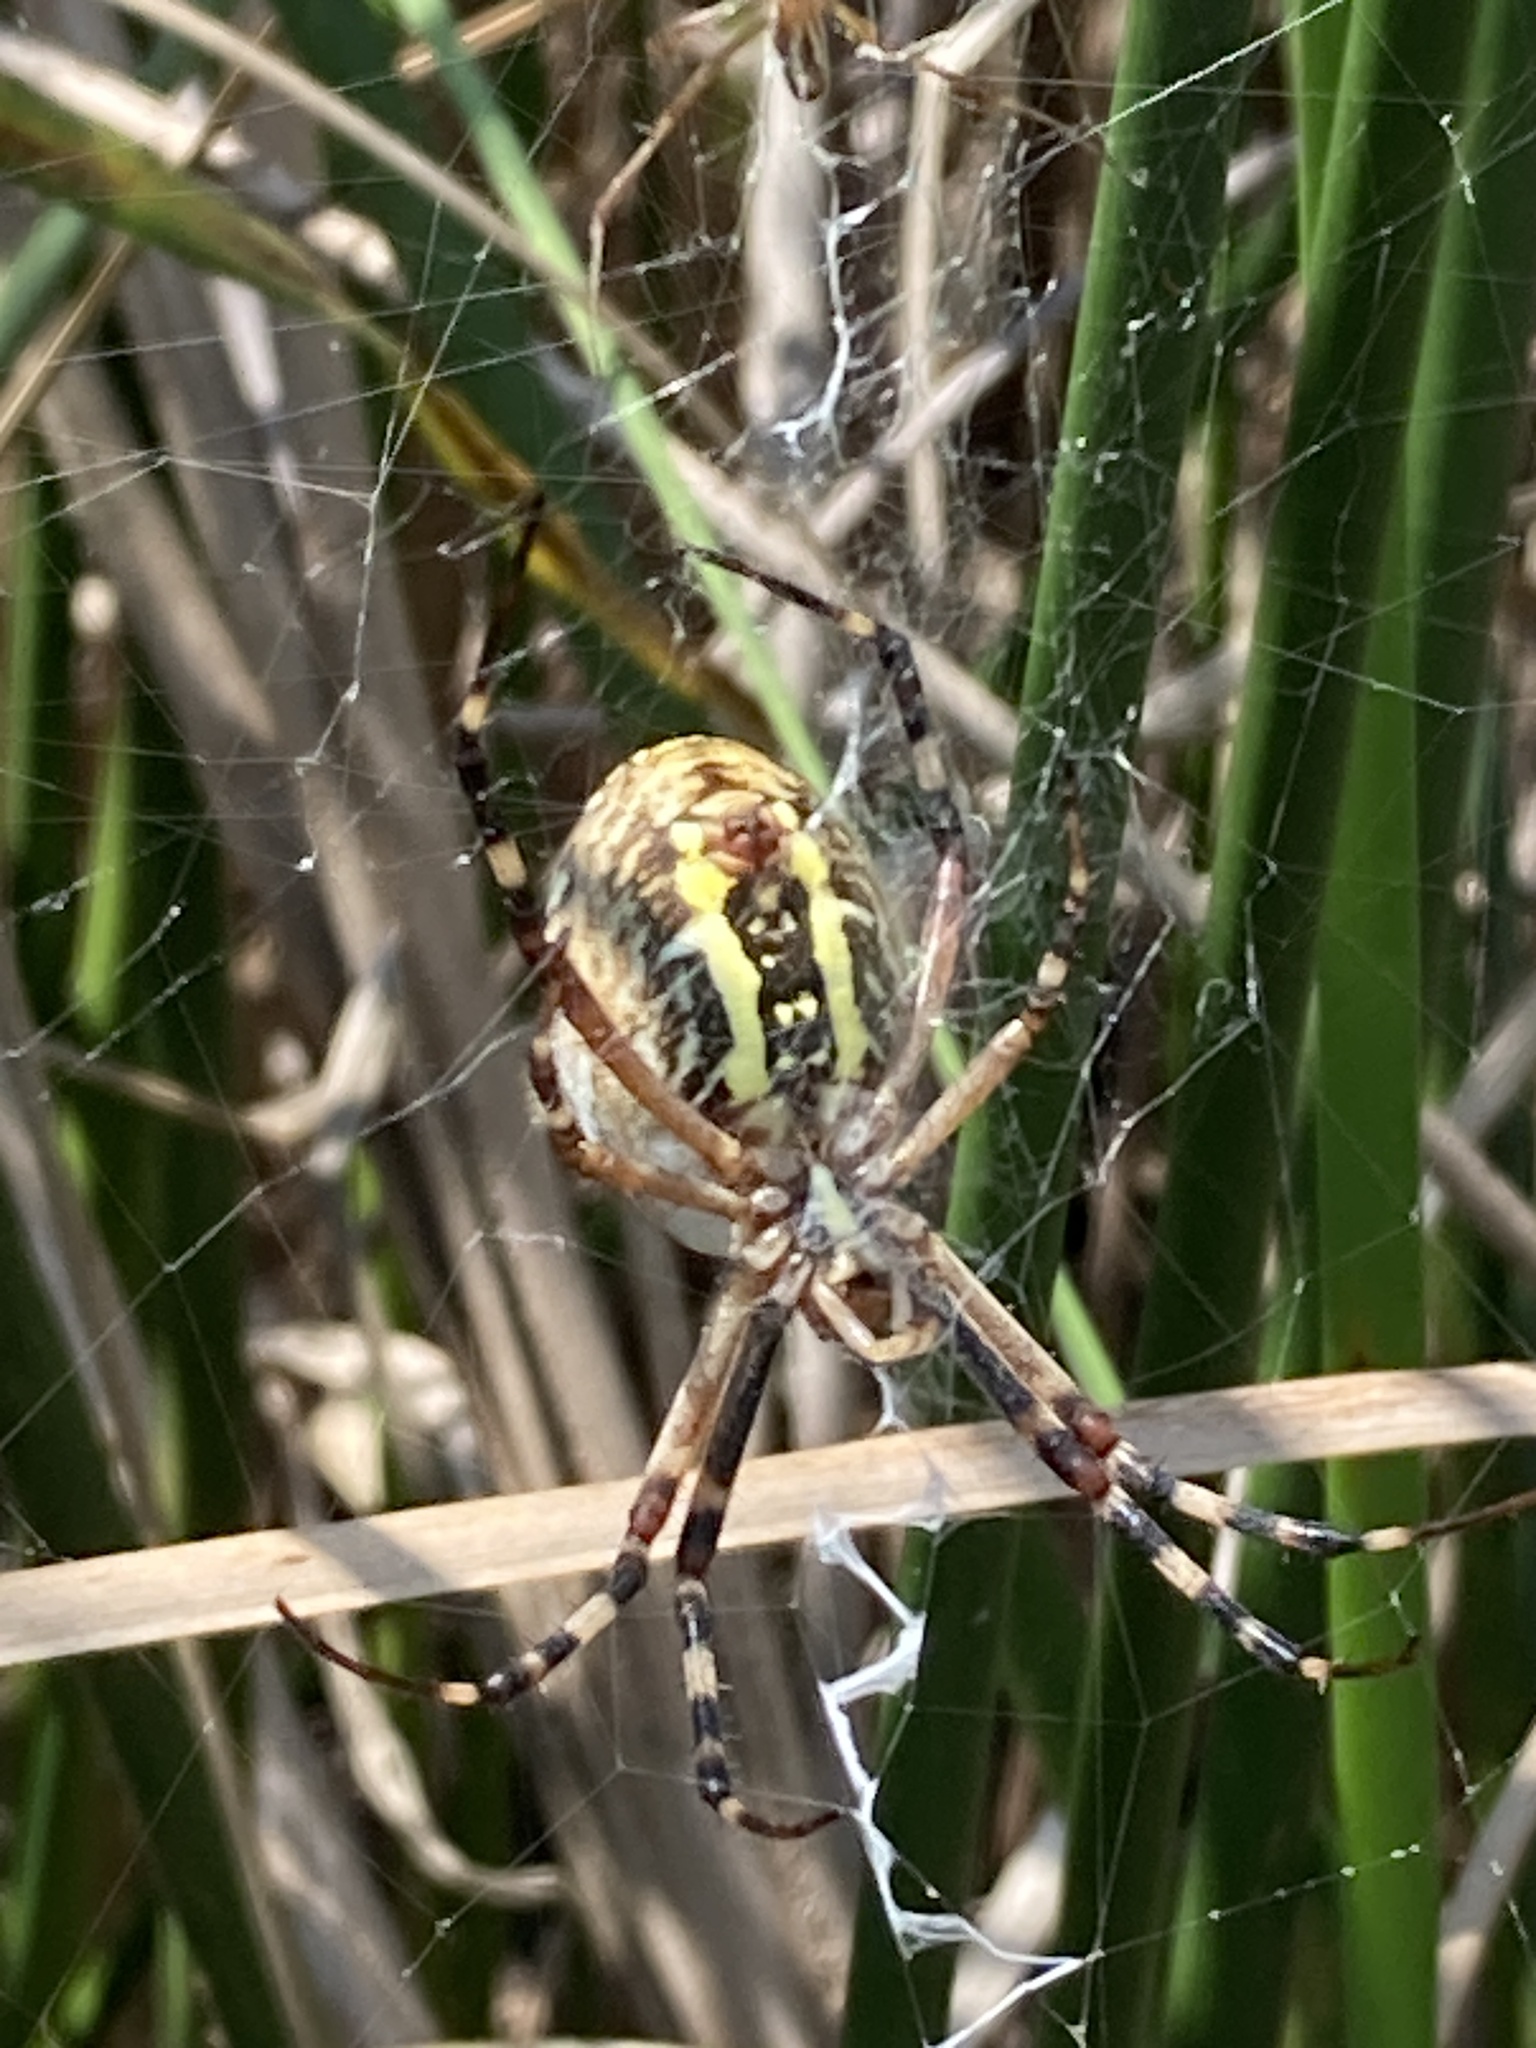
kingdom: Animalia
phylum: Arthropoda
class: Arachnida
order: Araneae
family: Araneidae
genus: Argiope
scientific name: Argiope bruennichi
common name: Wasp spider
